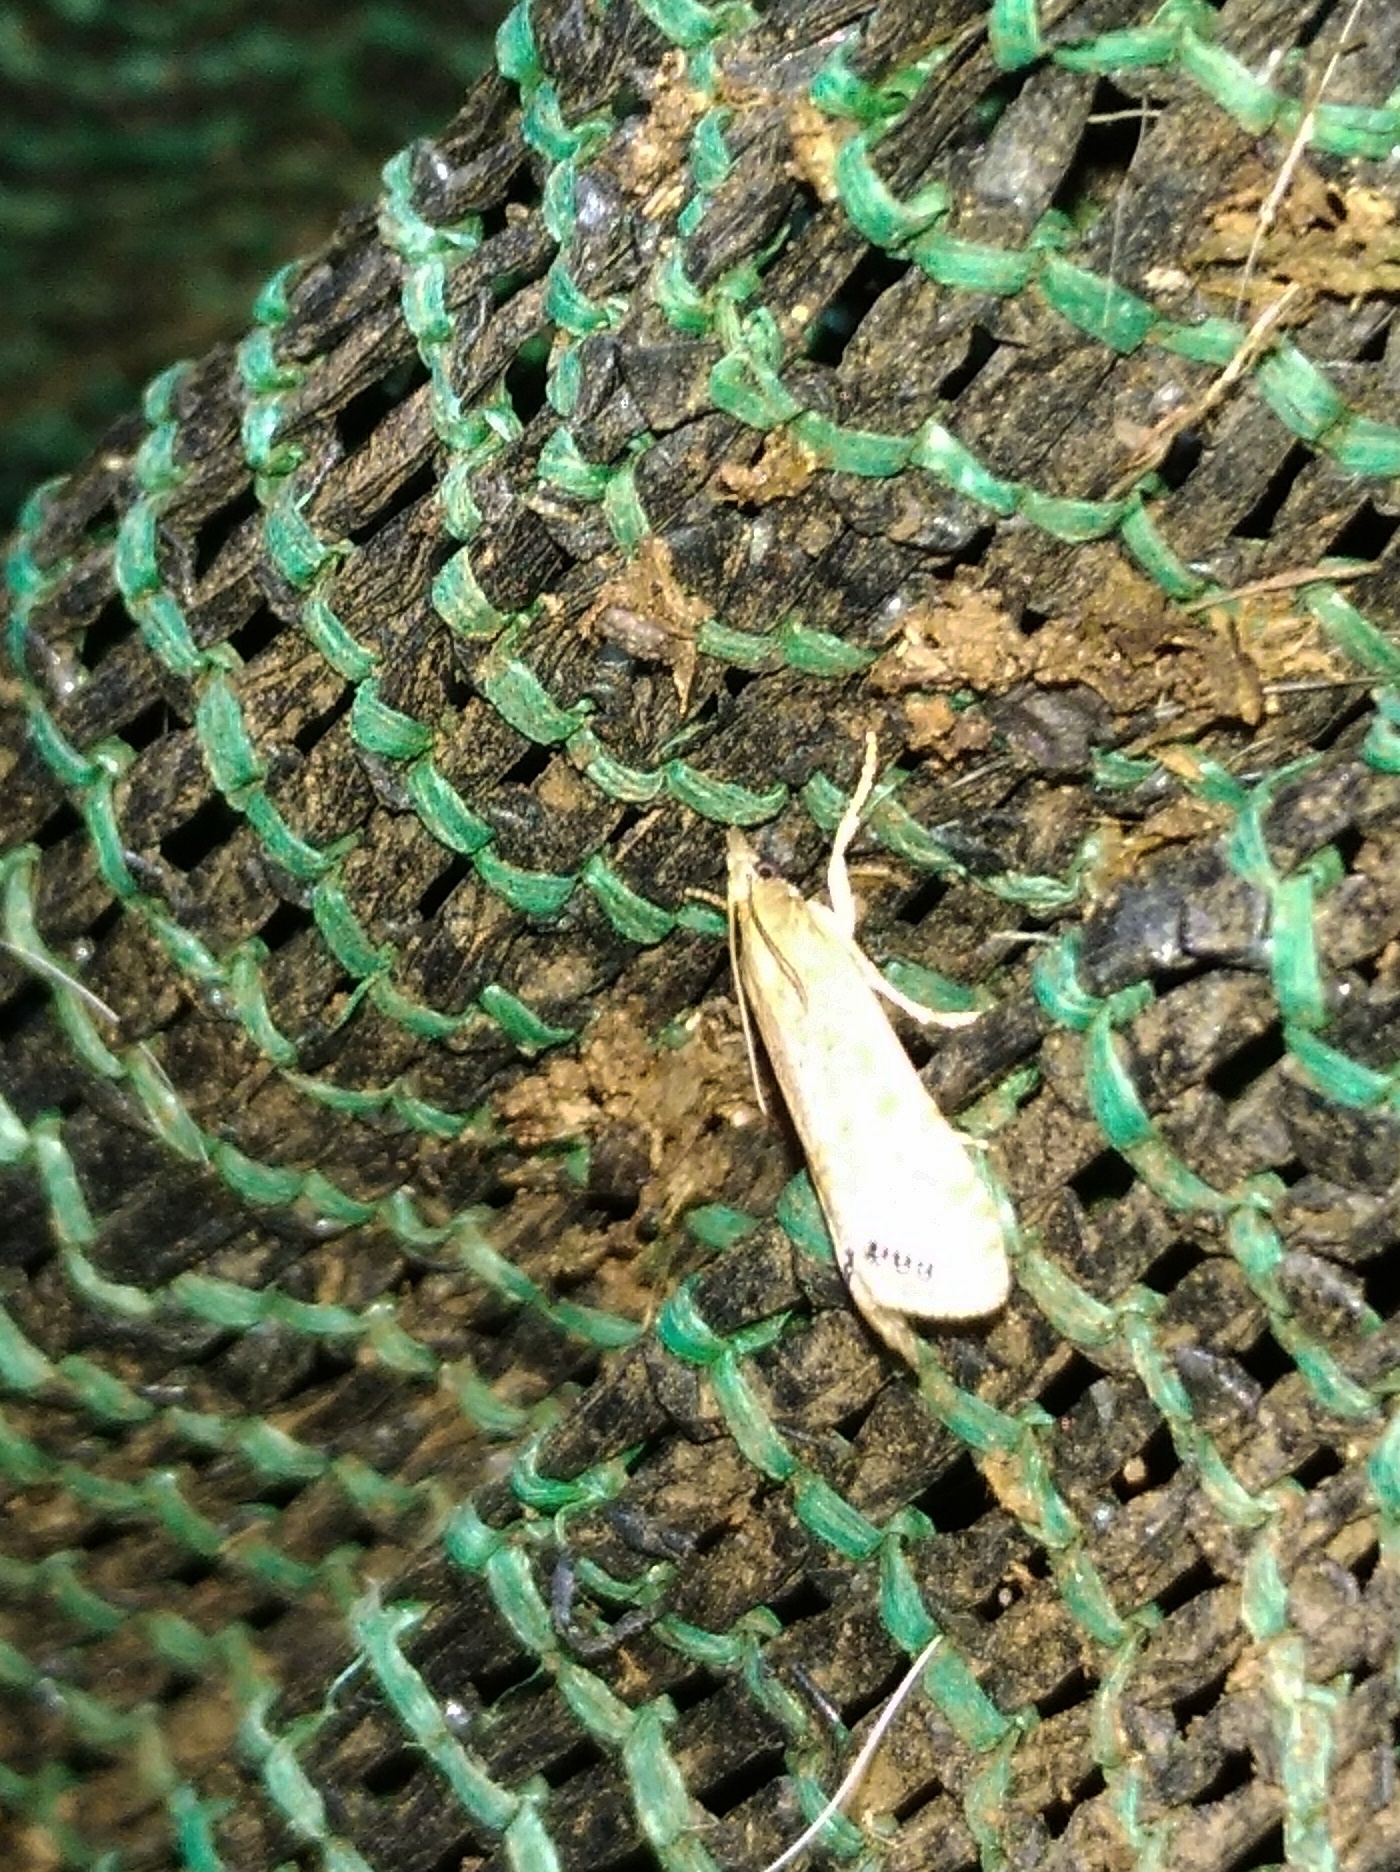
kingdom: Animalia
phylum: Arthropoda
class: Insecta
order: Lepidoptera
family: Crambidae
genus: Euchromius
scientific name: Euchromius ocellea
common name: Necklace veneer moth
